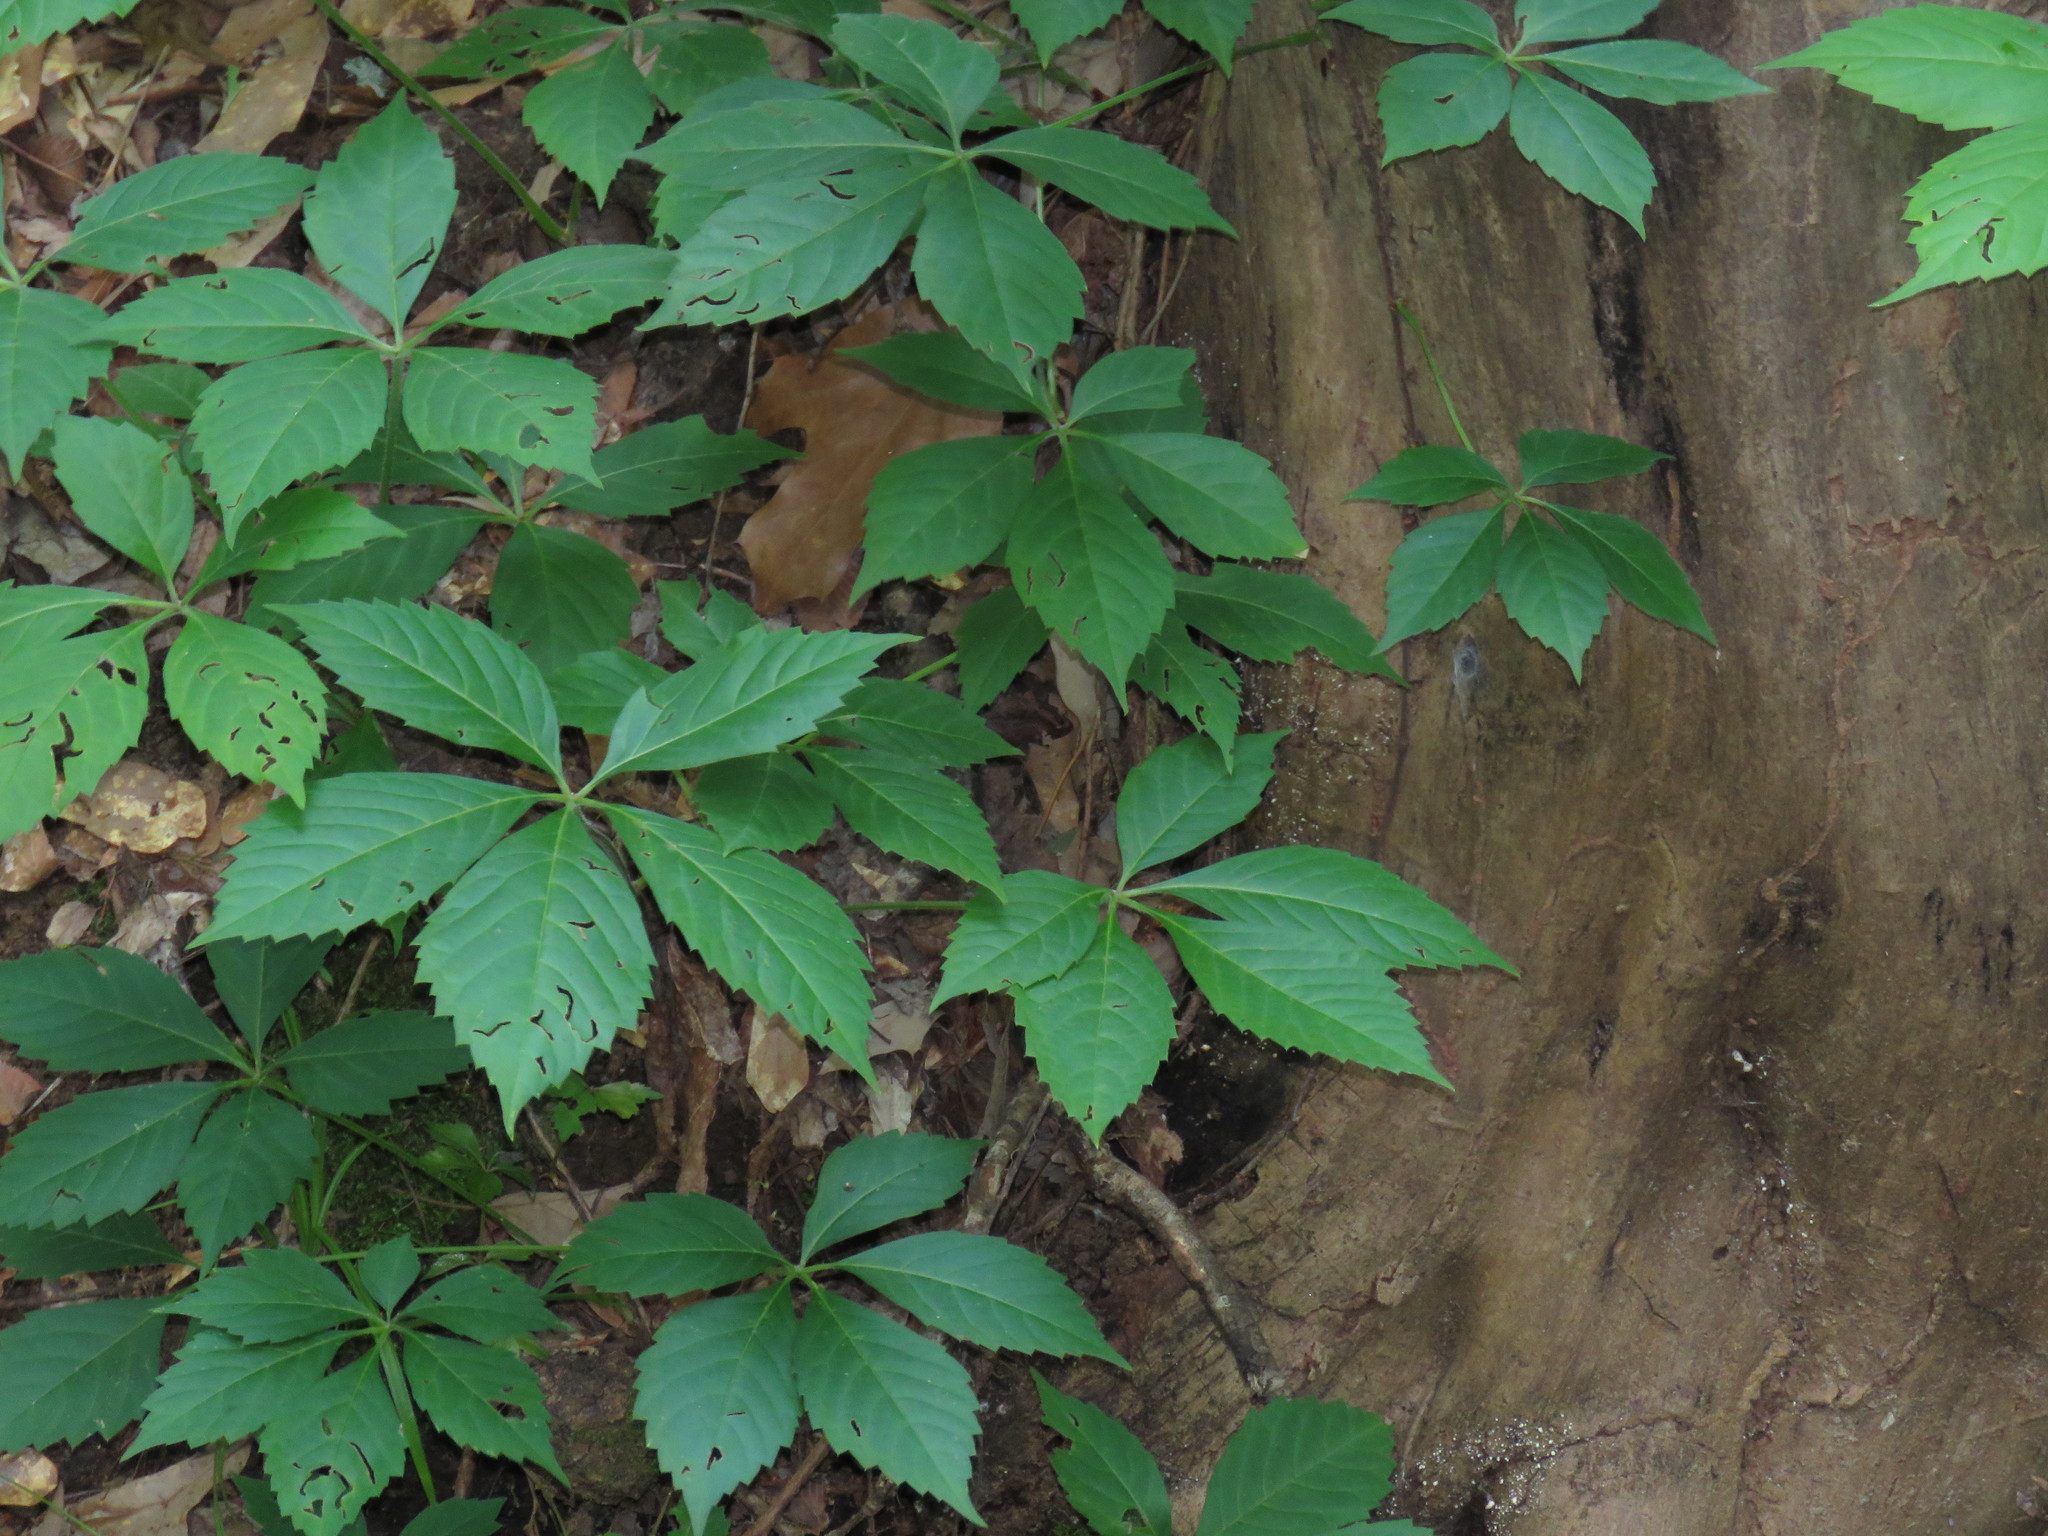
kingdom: Plantae
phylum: Tracheophyta
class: Magnoliopsida
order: Vitales
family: Vitaceae
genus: Parthenocissus
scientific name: Parthenocissus quinquefolia
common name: Virginia-creeper
